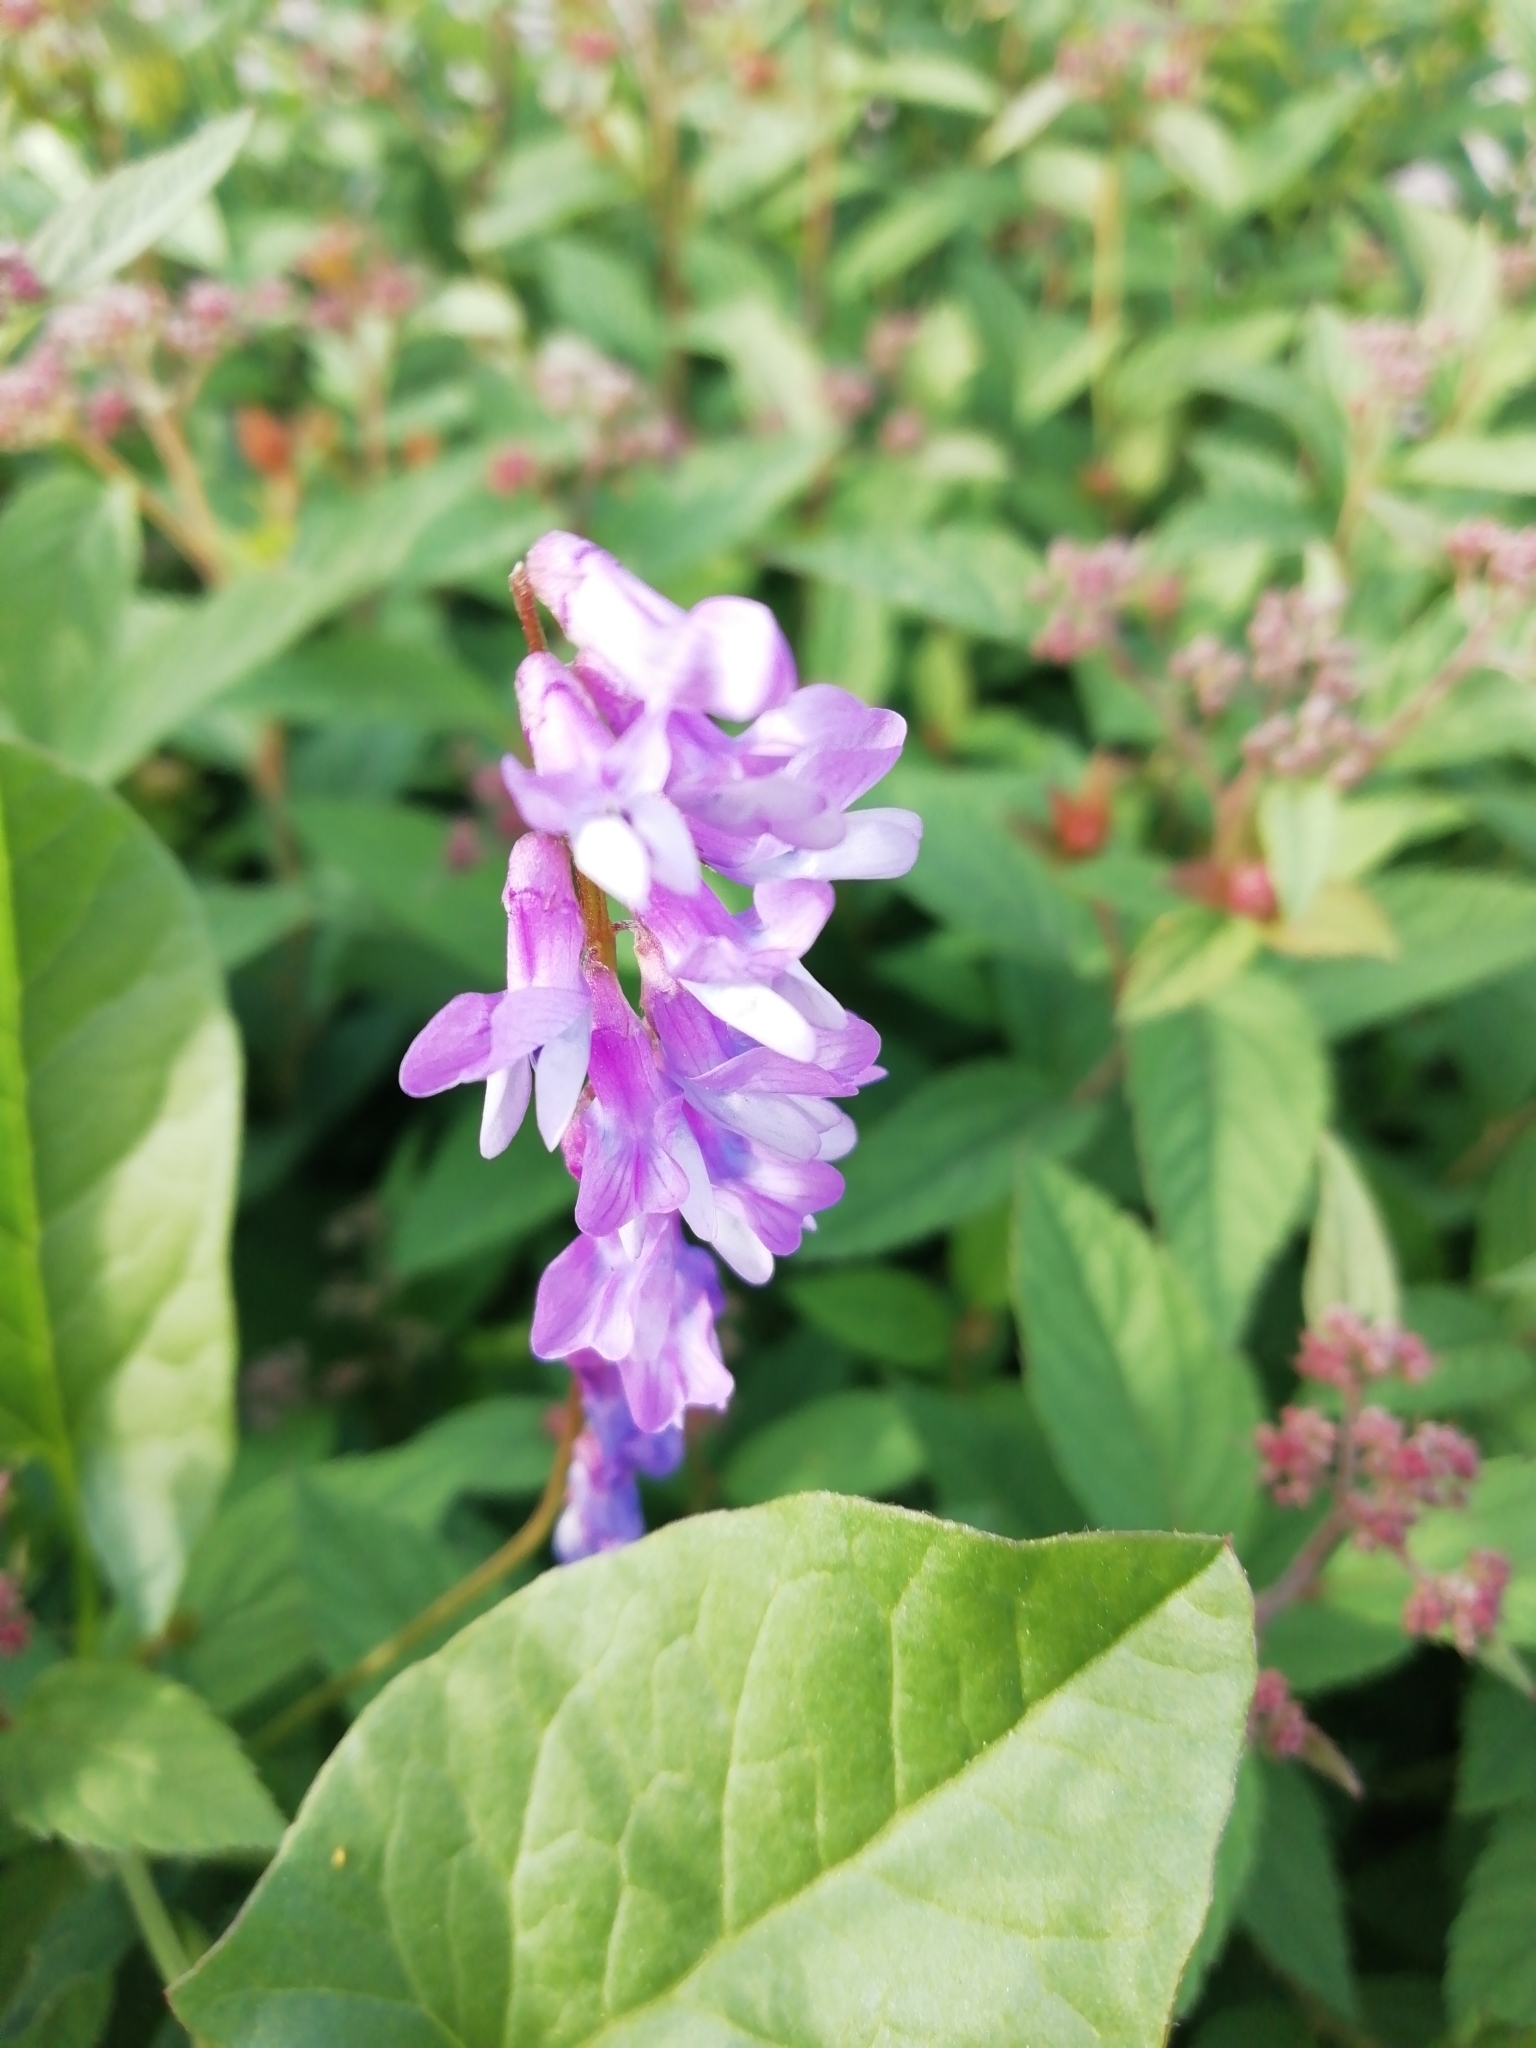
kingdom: Plantae
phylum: Tracheophyta
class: Magnoliopsida
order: Fabales
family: Fabaceae
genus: Vicia
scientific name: Vicia cracca
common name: Bird vetch
